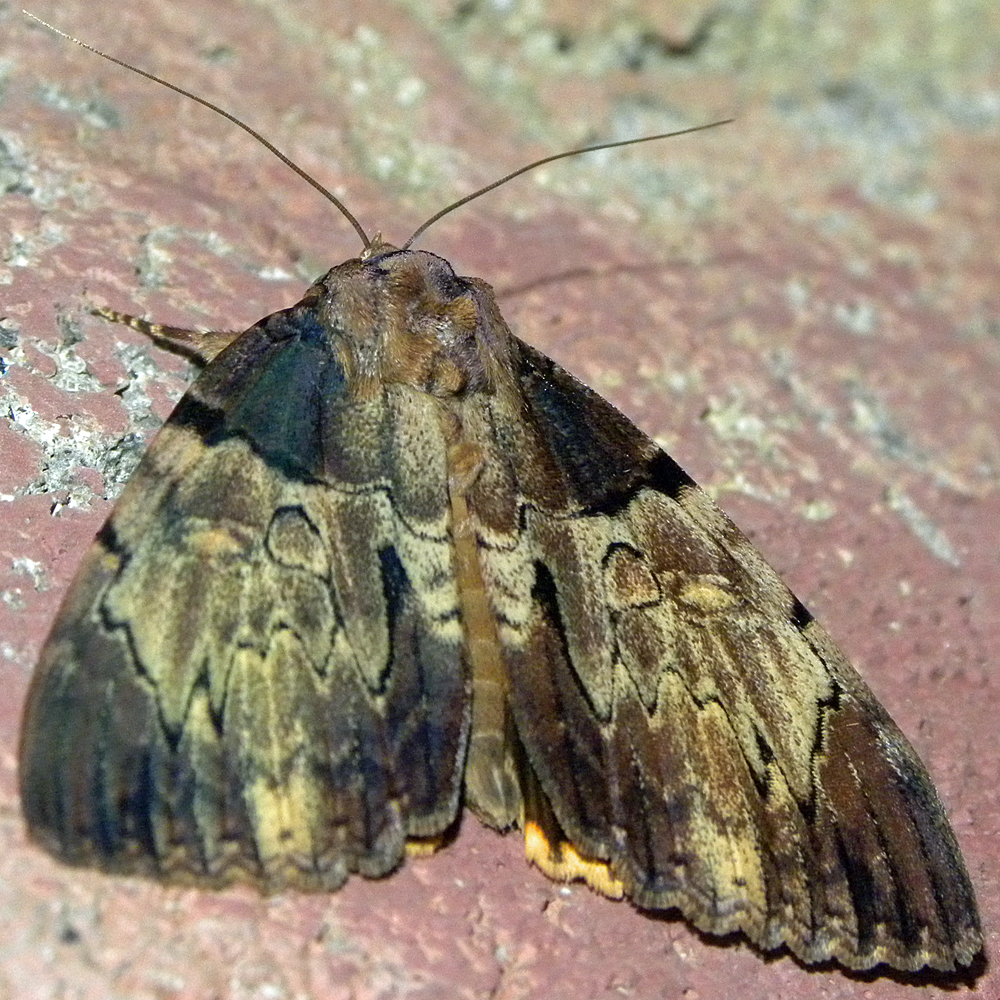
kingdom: Animalia
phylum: Arthropoda
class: Insecta
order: Lepidoptera
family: Erebidae
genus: Catocala
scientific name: Catocala nebulosa
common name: Clouded underwing
